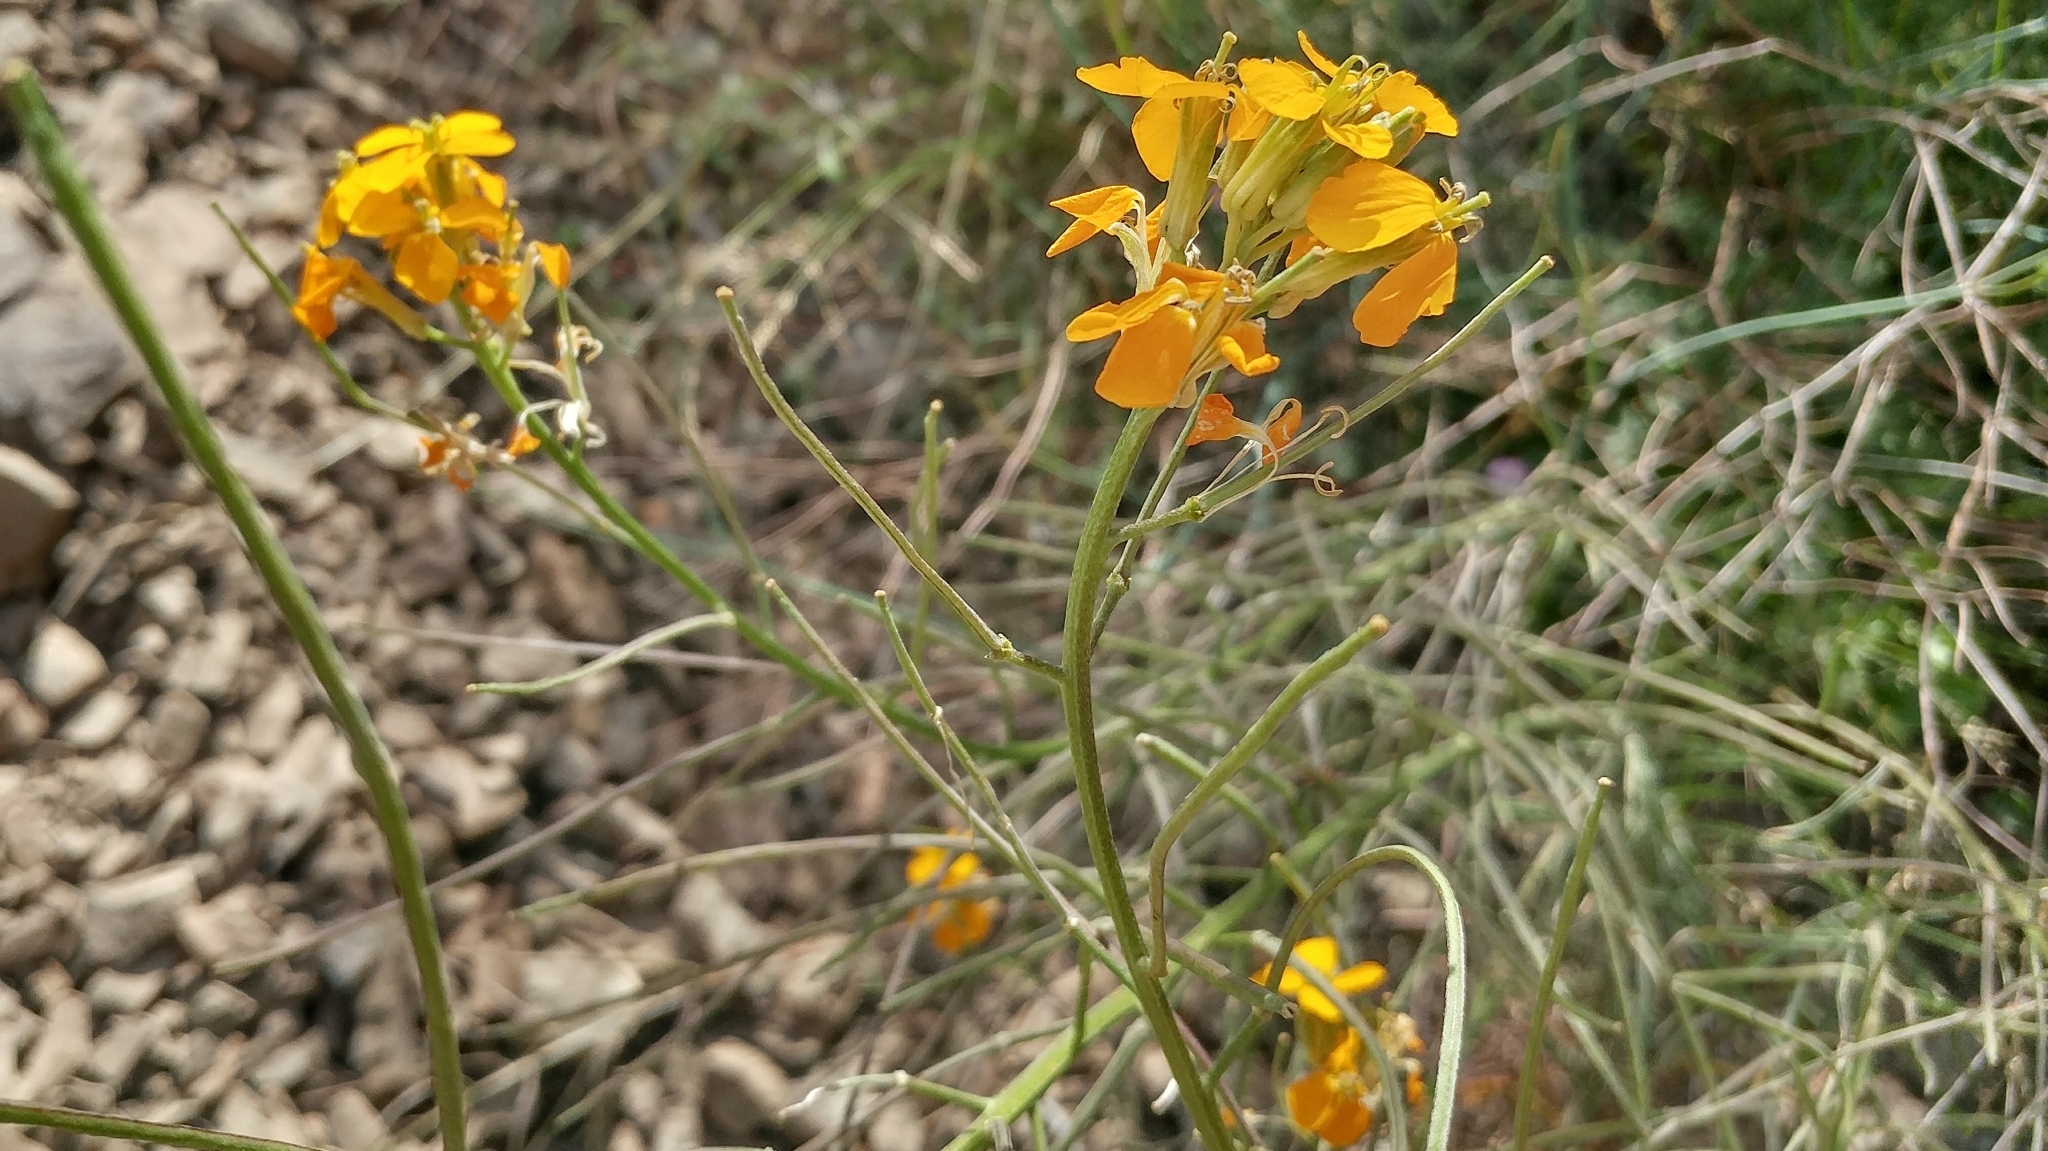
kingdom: Plantae
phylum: Tracheophyta
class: Magnoliopsida
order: Brassicales
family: Brassicaceae
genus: Erysimum
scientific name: Erysimum capitatum
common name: Western wallflower
